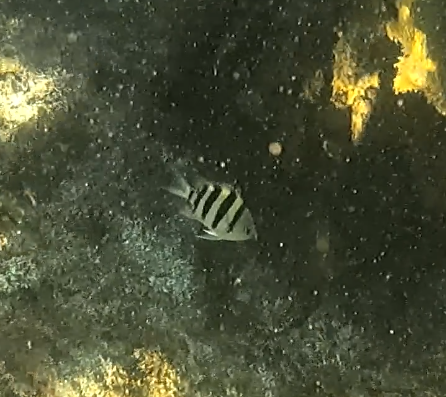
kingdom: Animalia
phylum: Chordata
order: Perciformes
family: Pomacentridae
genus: Abudefduf
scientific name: Abudefduf sexfasciatus
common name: Scissortail sergeant
